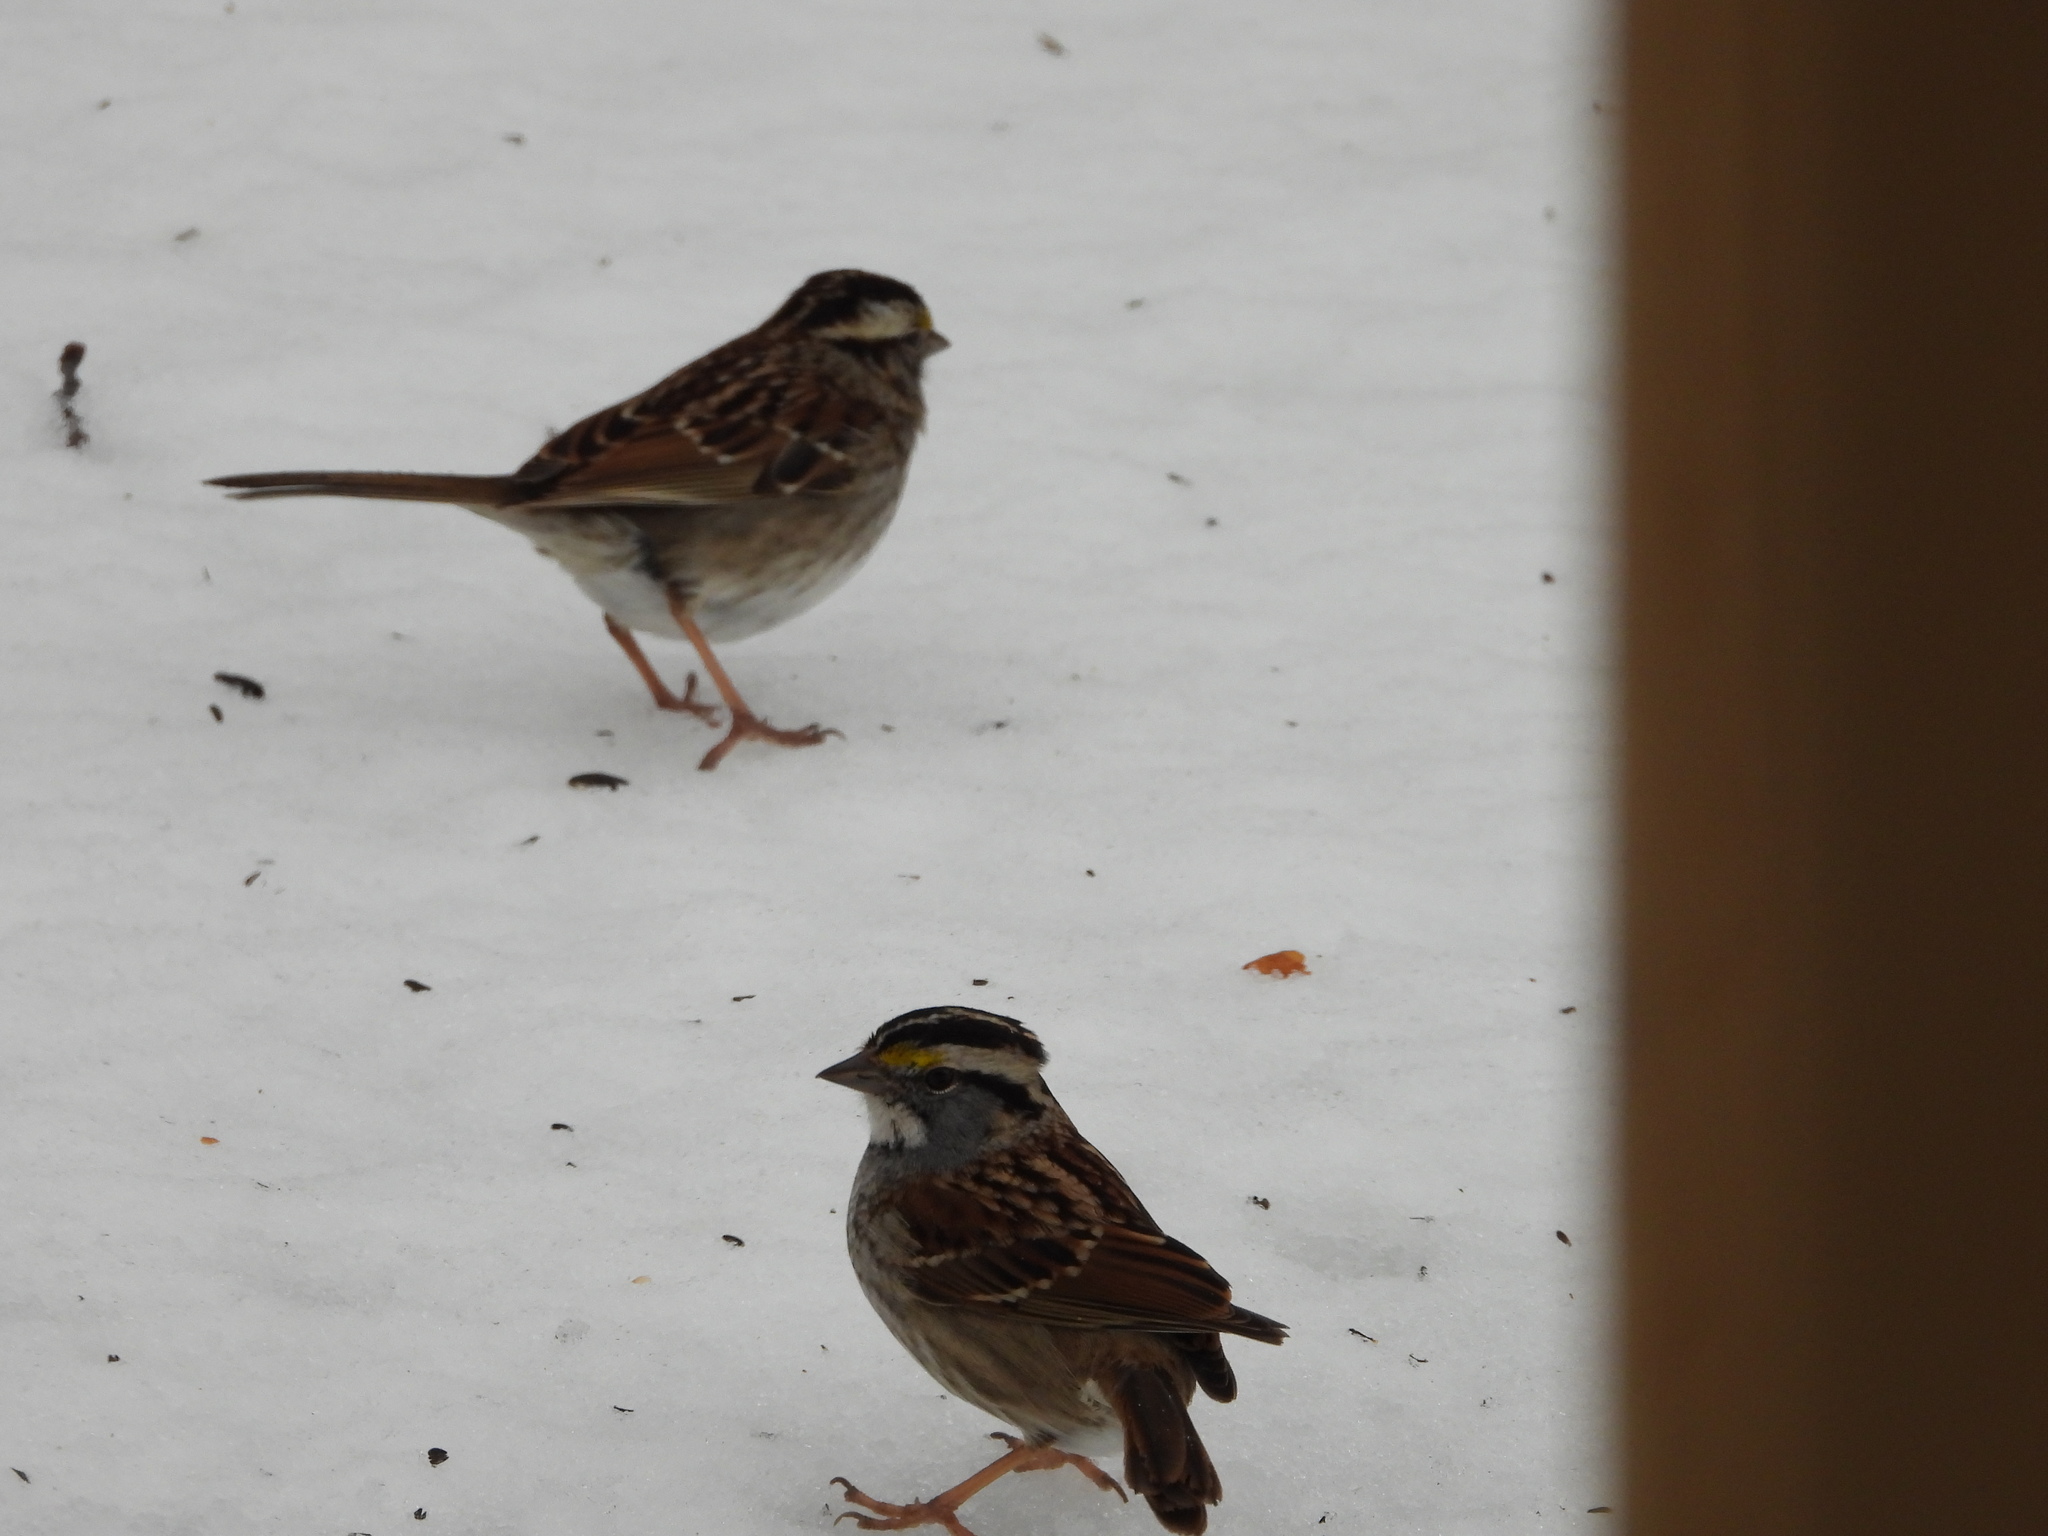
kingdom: Animalia
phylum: Chordata
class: Aves
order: Passeriformes
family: Passerellidae
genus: Zonotrichia
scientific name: Zonotrichia albicollis
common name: White-throated sparrow
